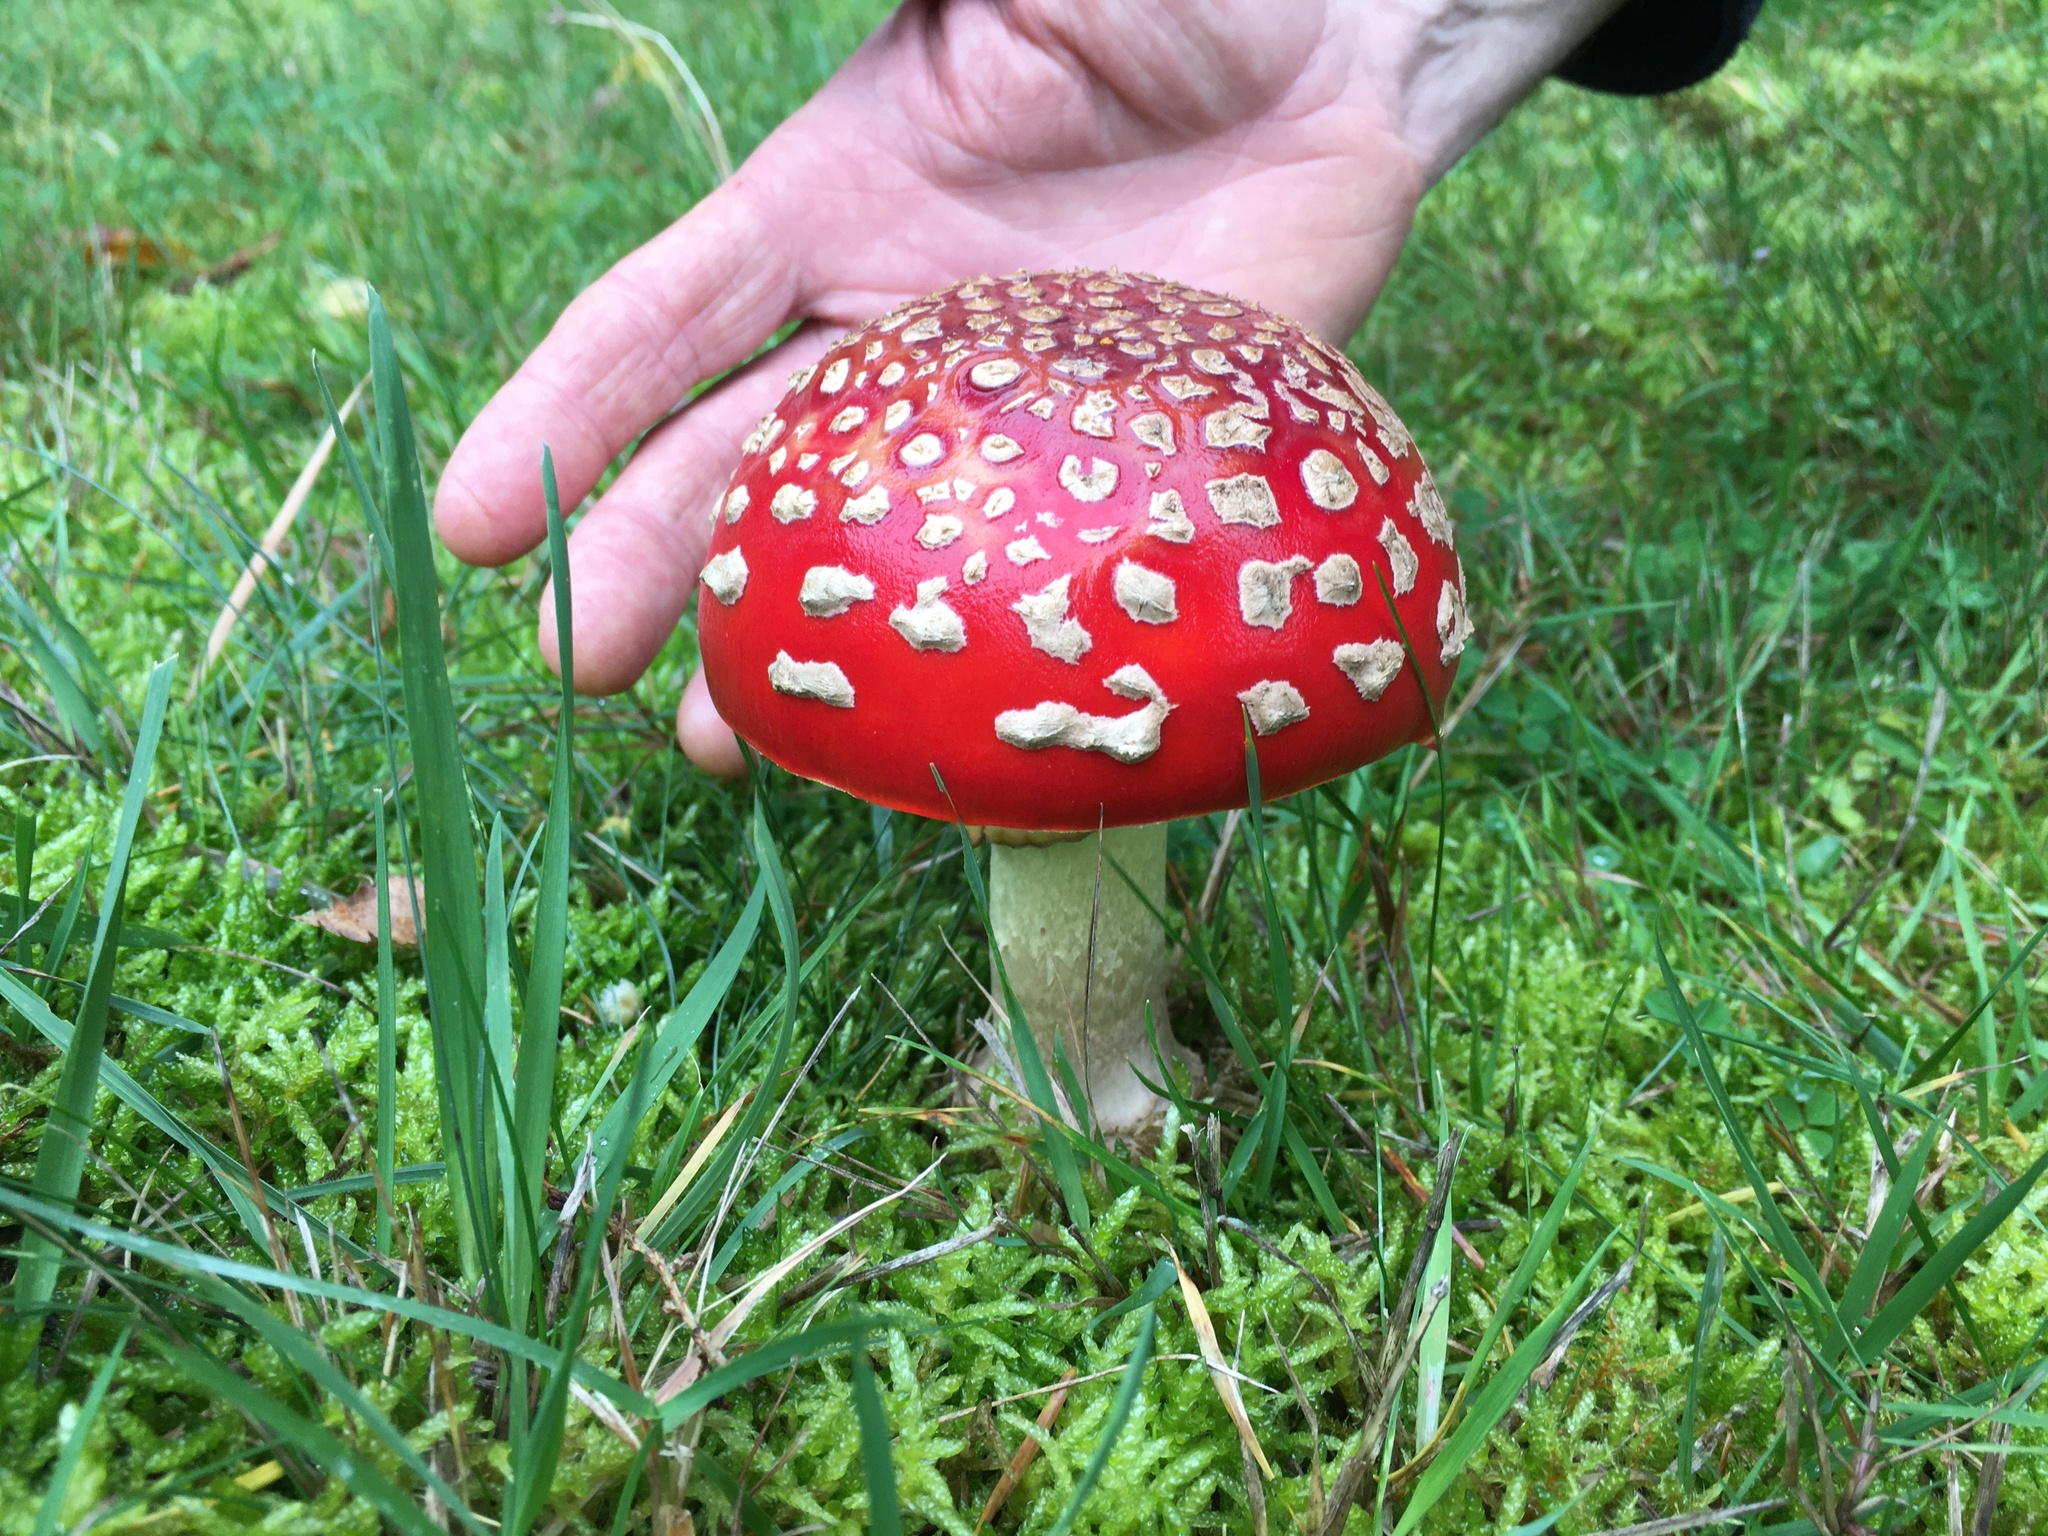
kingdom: Fungi
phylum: Basidiomycota
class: Agaricomycetes
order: Agaricales
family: Amanitaceae
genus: Amanita
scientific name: Amanita muscaria
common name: Fly agaric
